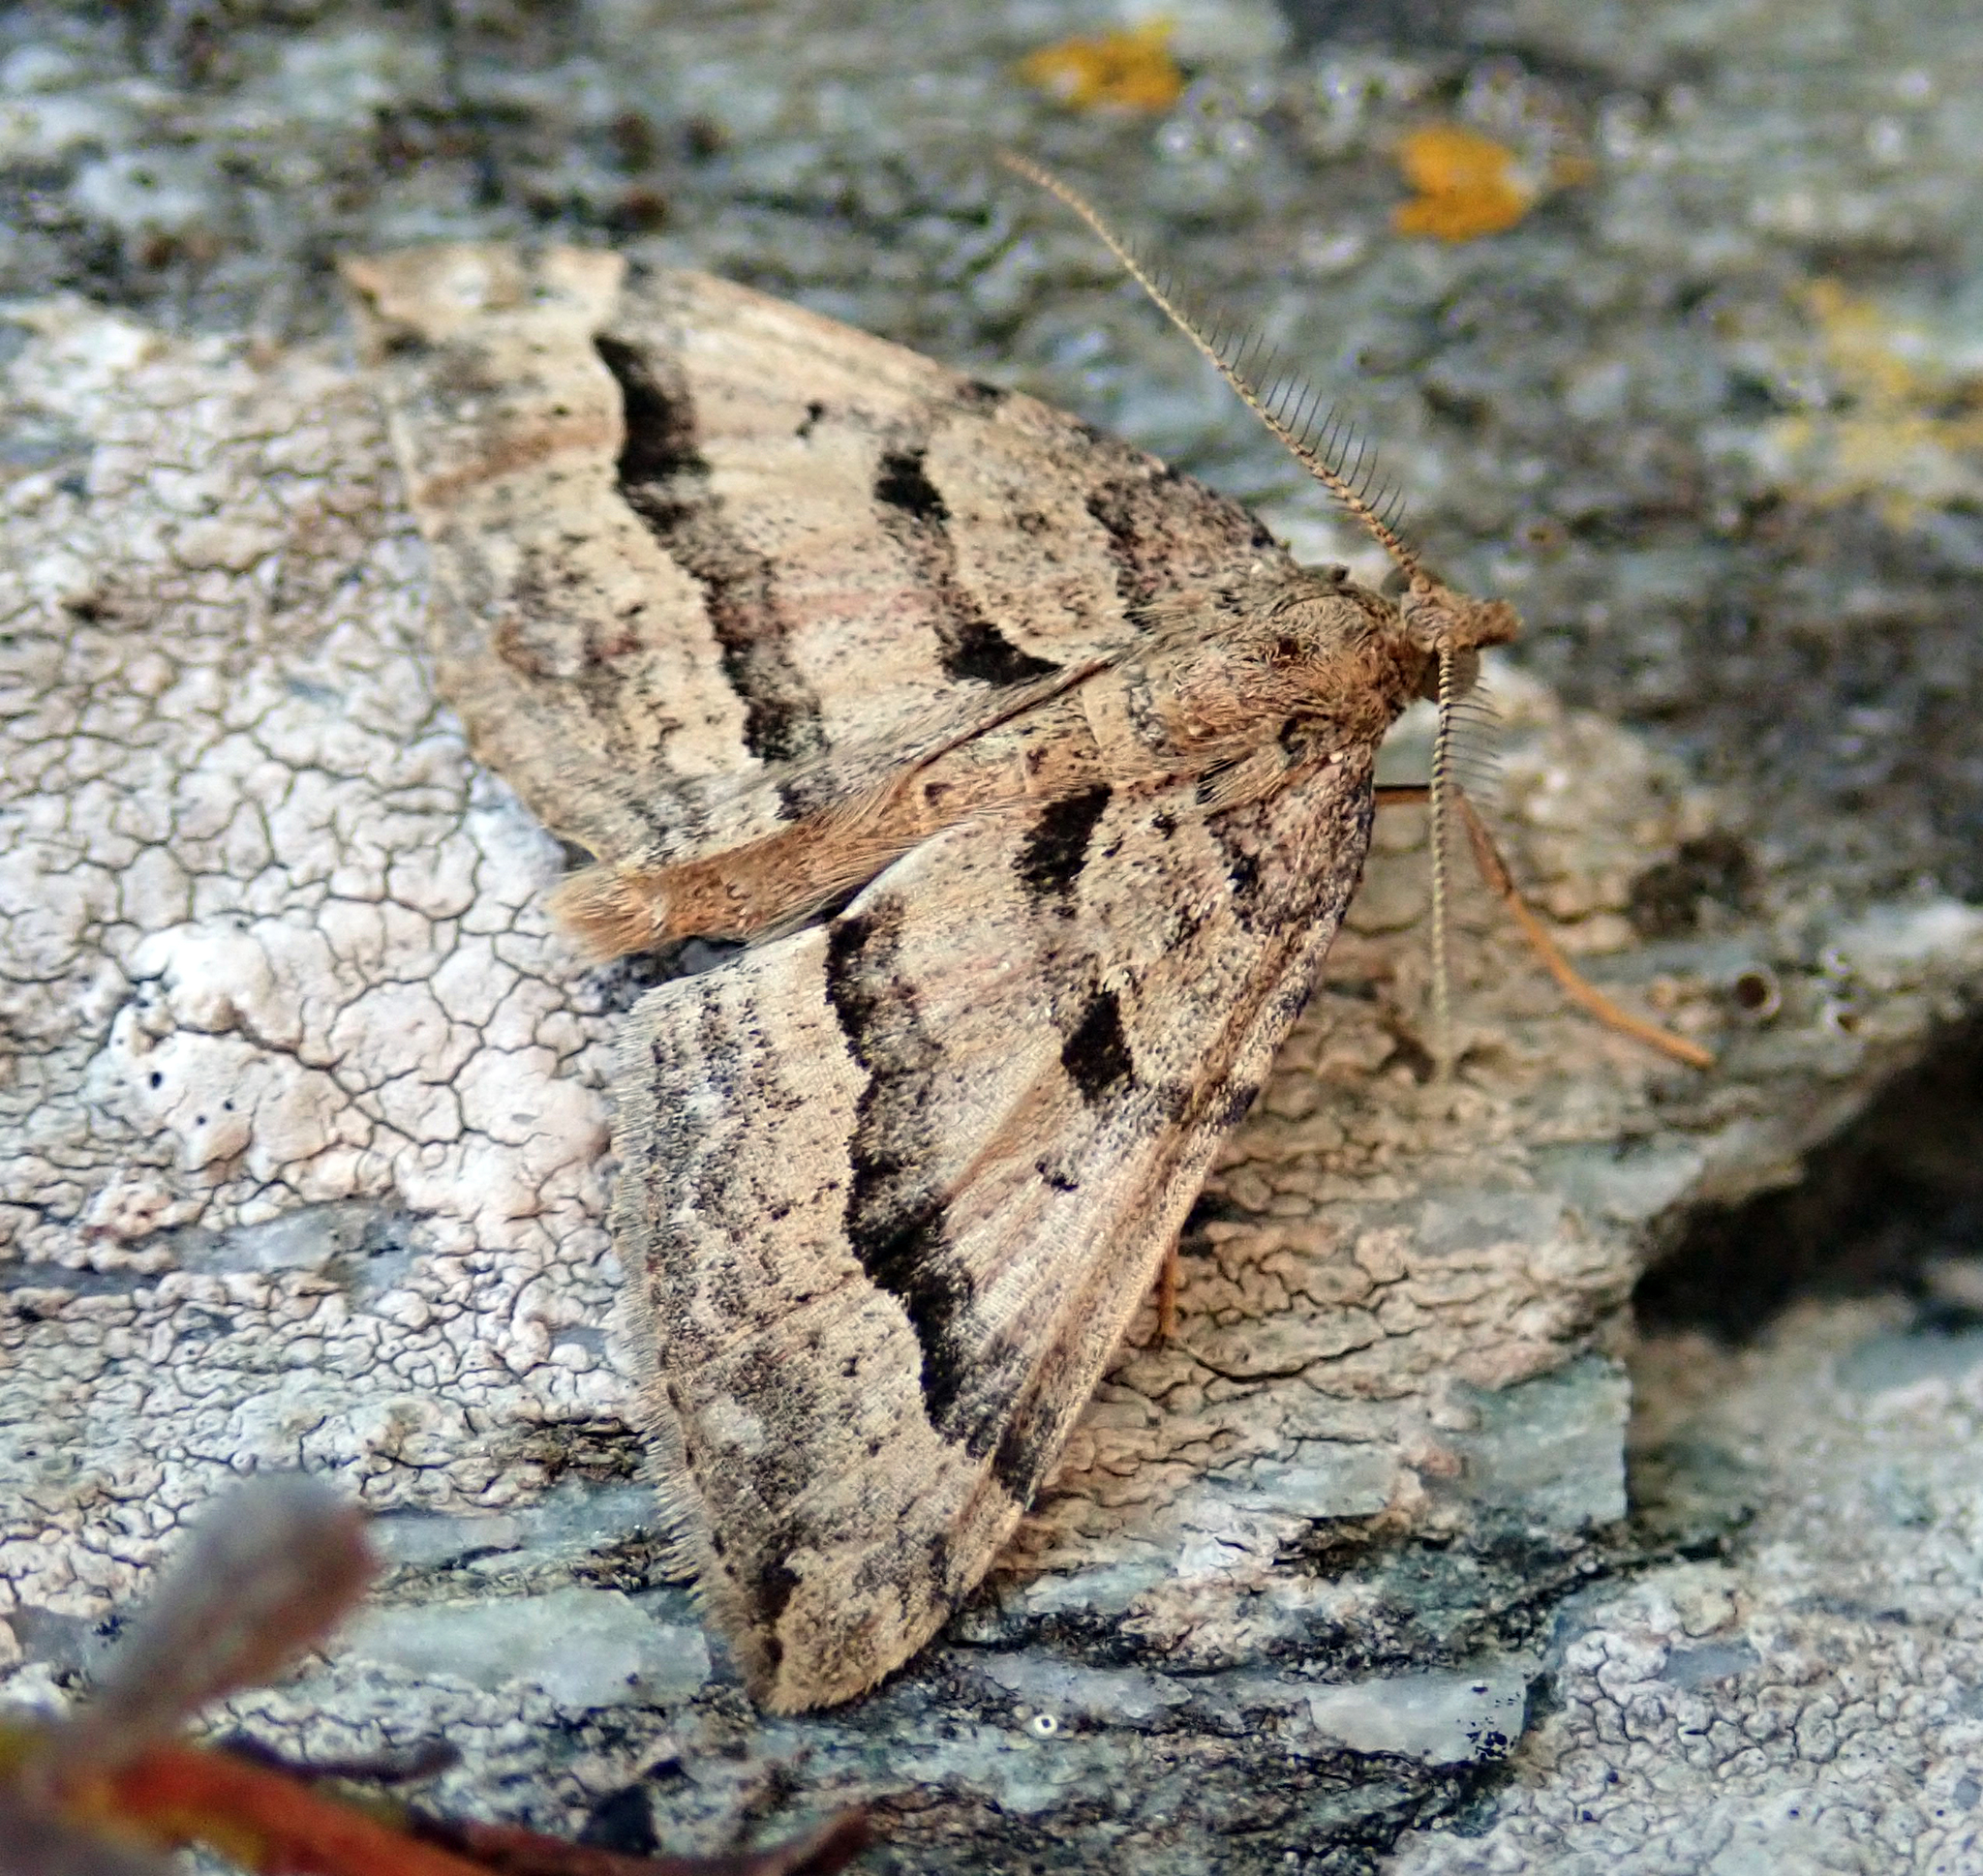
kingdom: Animalia
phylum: Arthropoda
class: Insecta
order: Lepidoptera
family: Geometridae
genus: Epyaxa
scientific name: Epyaxa rosearia
